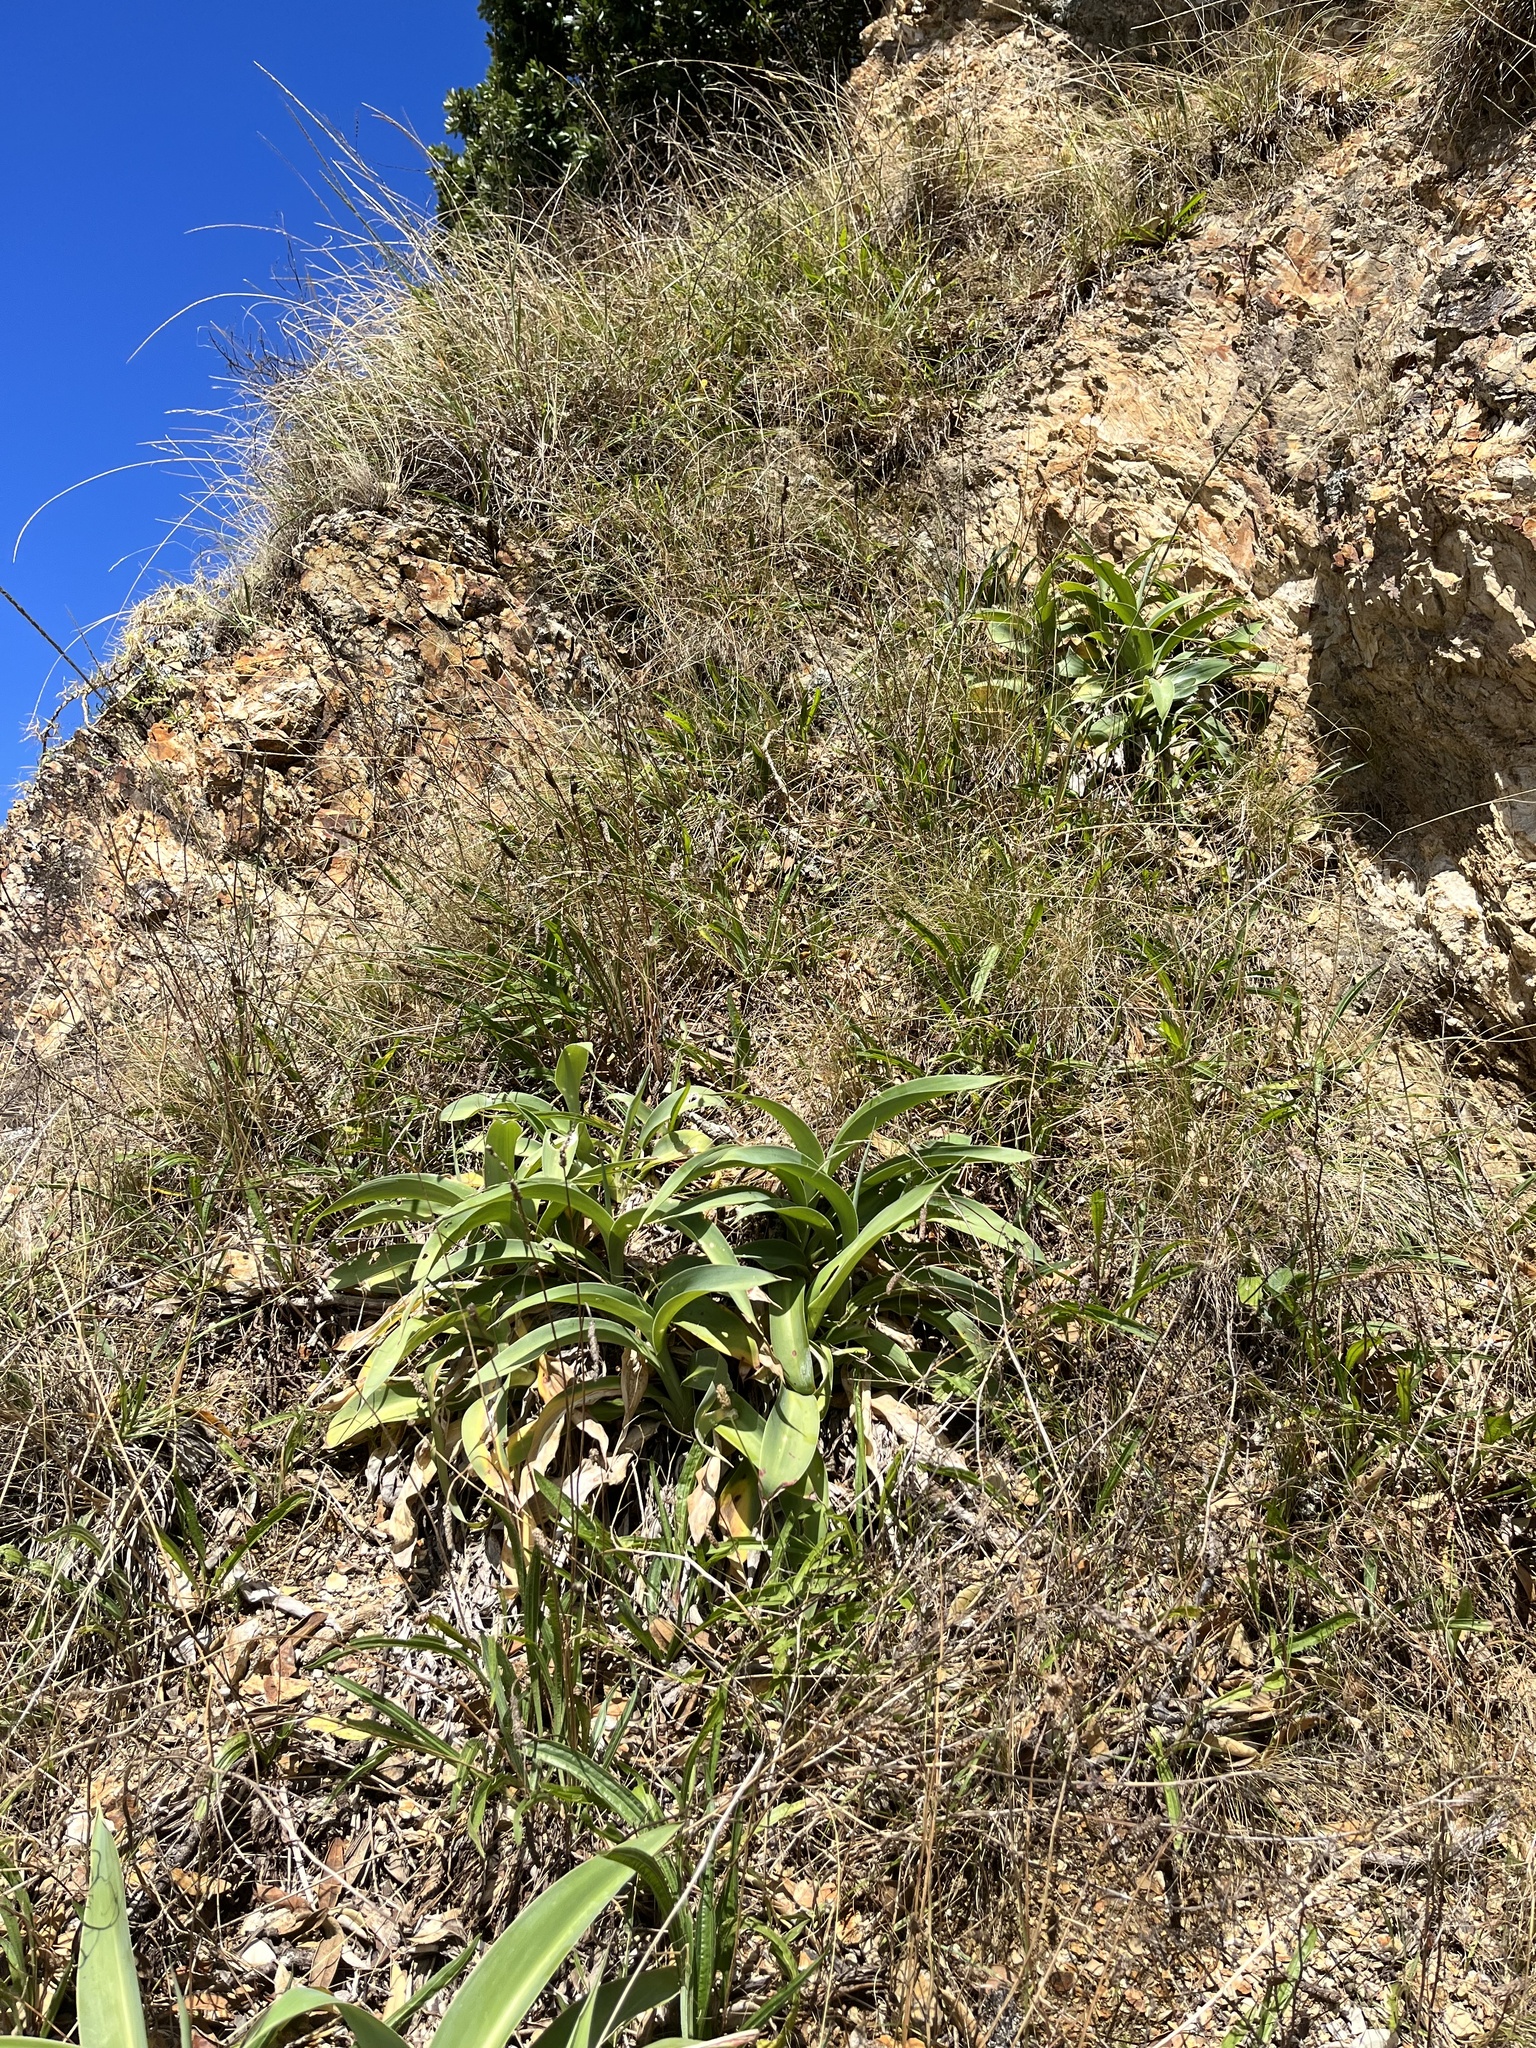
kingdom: Plantae
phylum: Tracheophyta
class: Liliopsida
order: Asparagales
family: Asparagaceae
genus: Arthropodium
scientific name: Arthropodium cirratum
